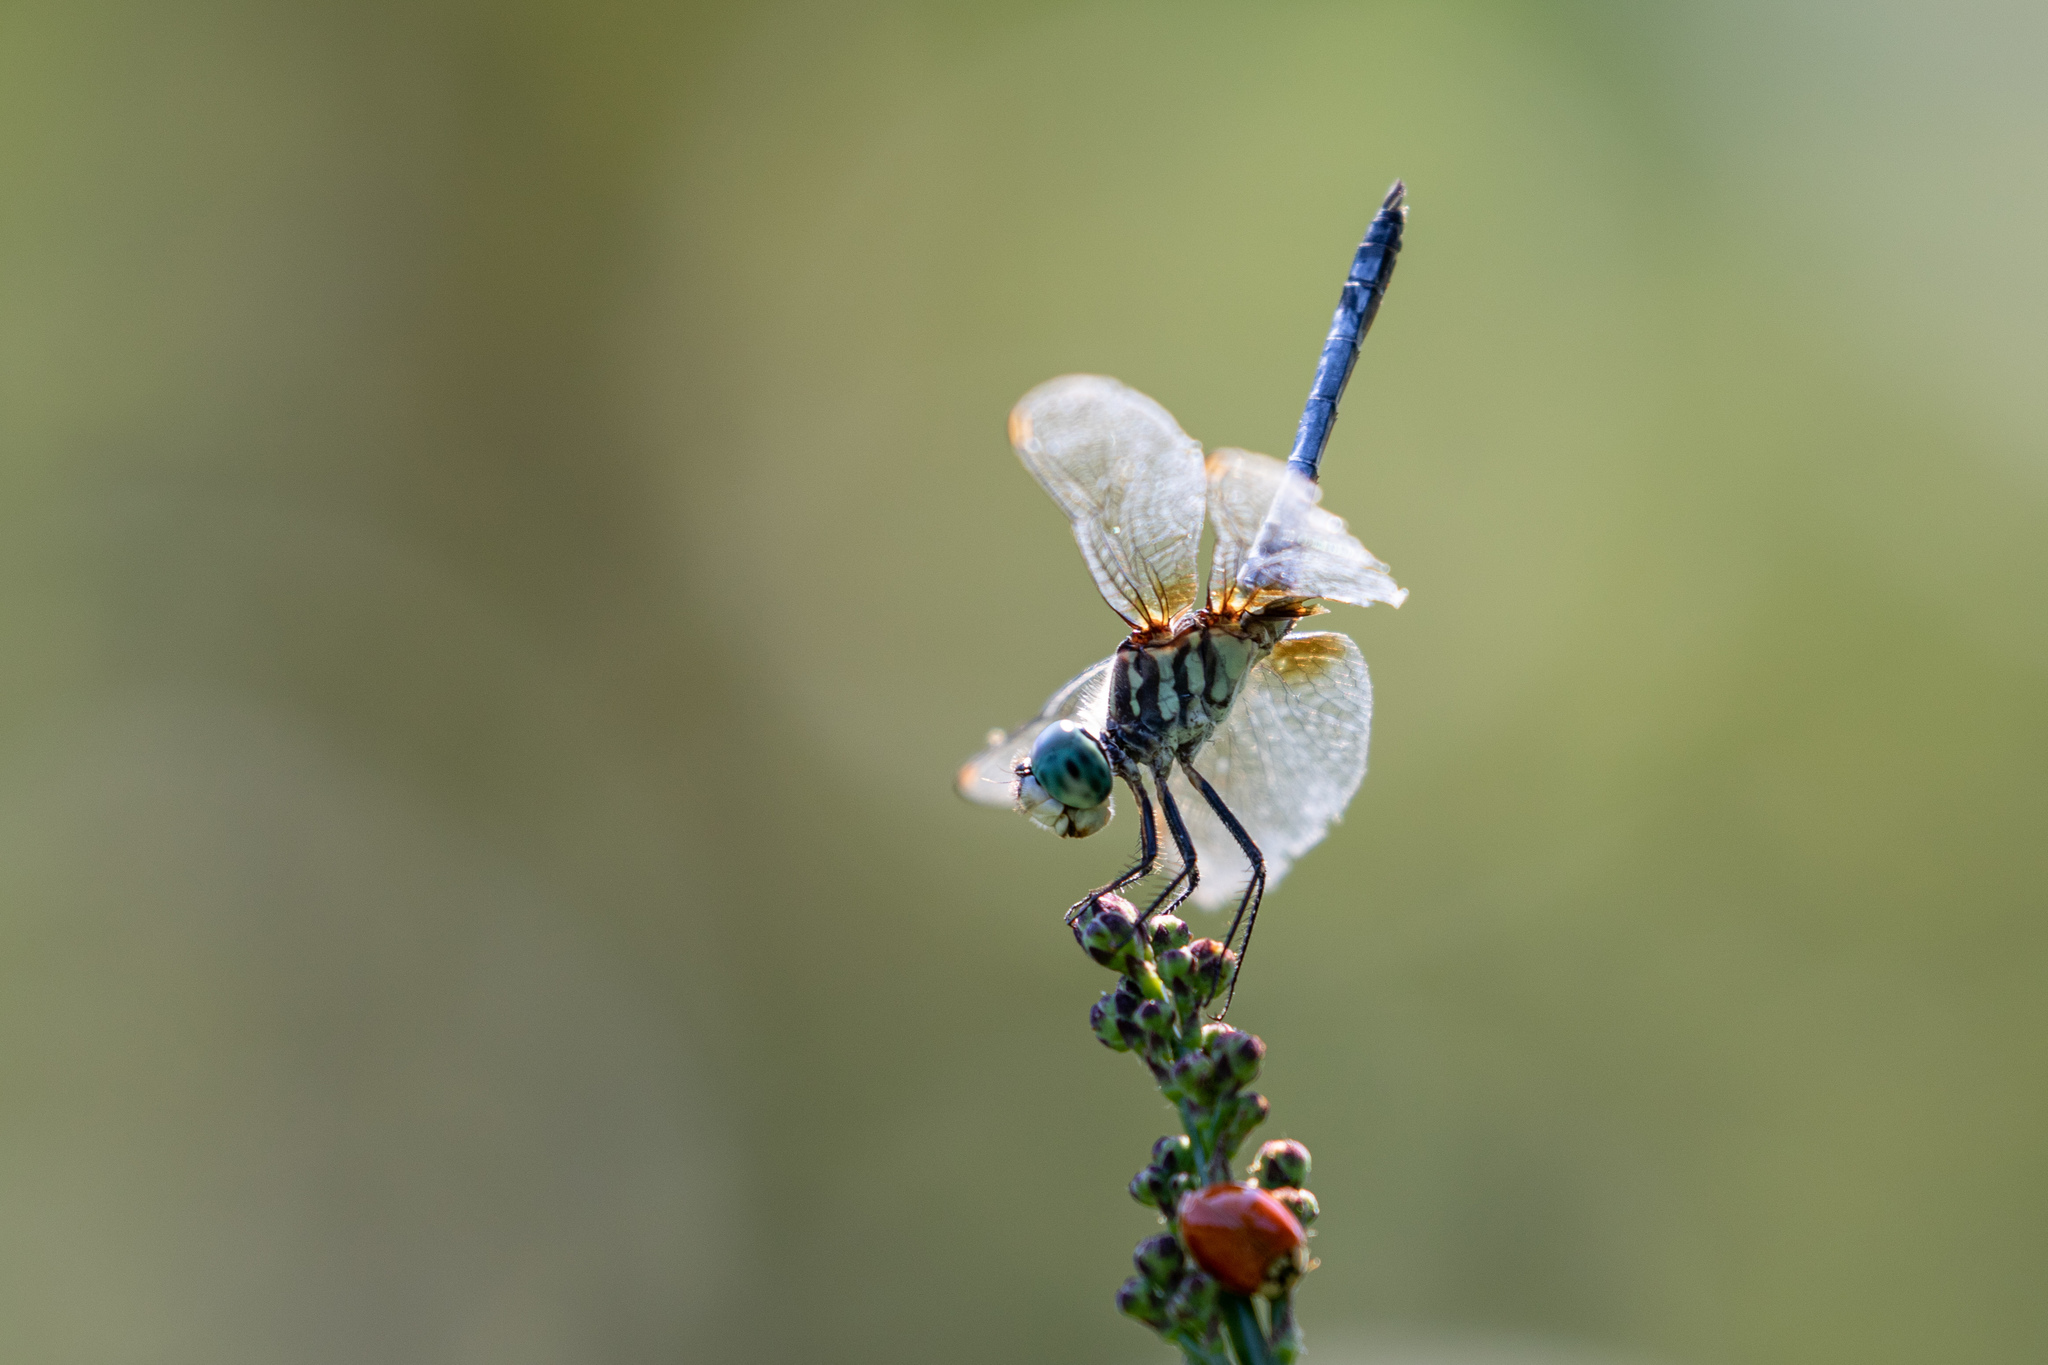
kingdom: Animalia
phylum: Arthropoda
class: Insecta
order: Odonata
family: Libellulidae
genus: Pachydiplax
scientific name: Pachydiplax longipennis
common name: Blue dasher
